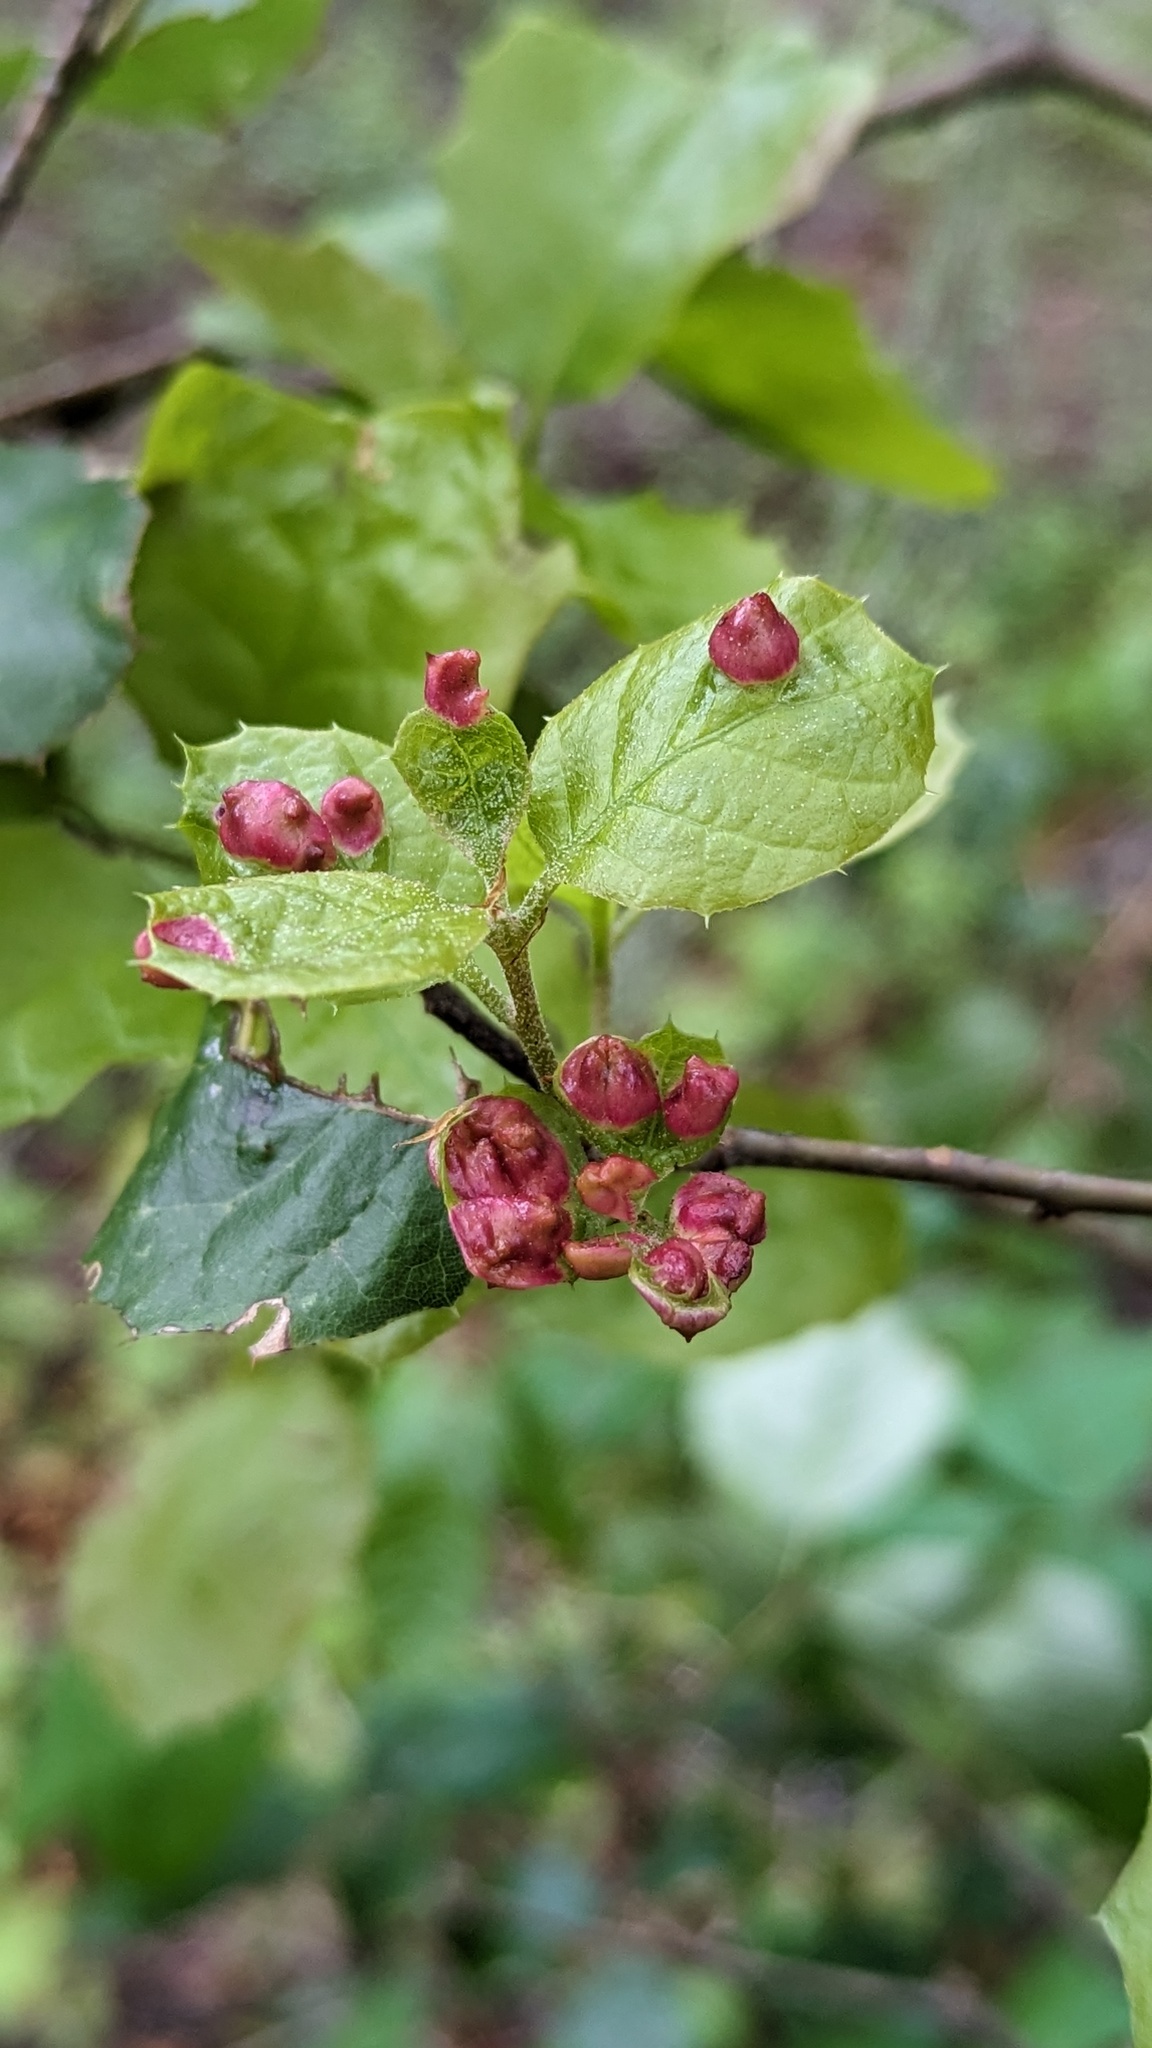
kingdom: Animalia
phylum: Arthropoda
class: Insecta
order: Hymenoptera
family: Cynipidae
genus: Dryocosmus
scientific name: Dryocosmus
